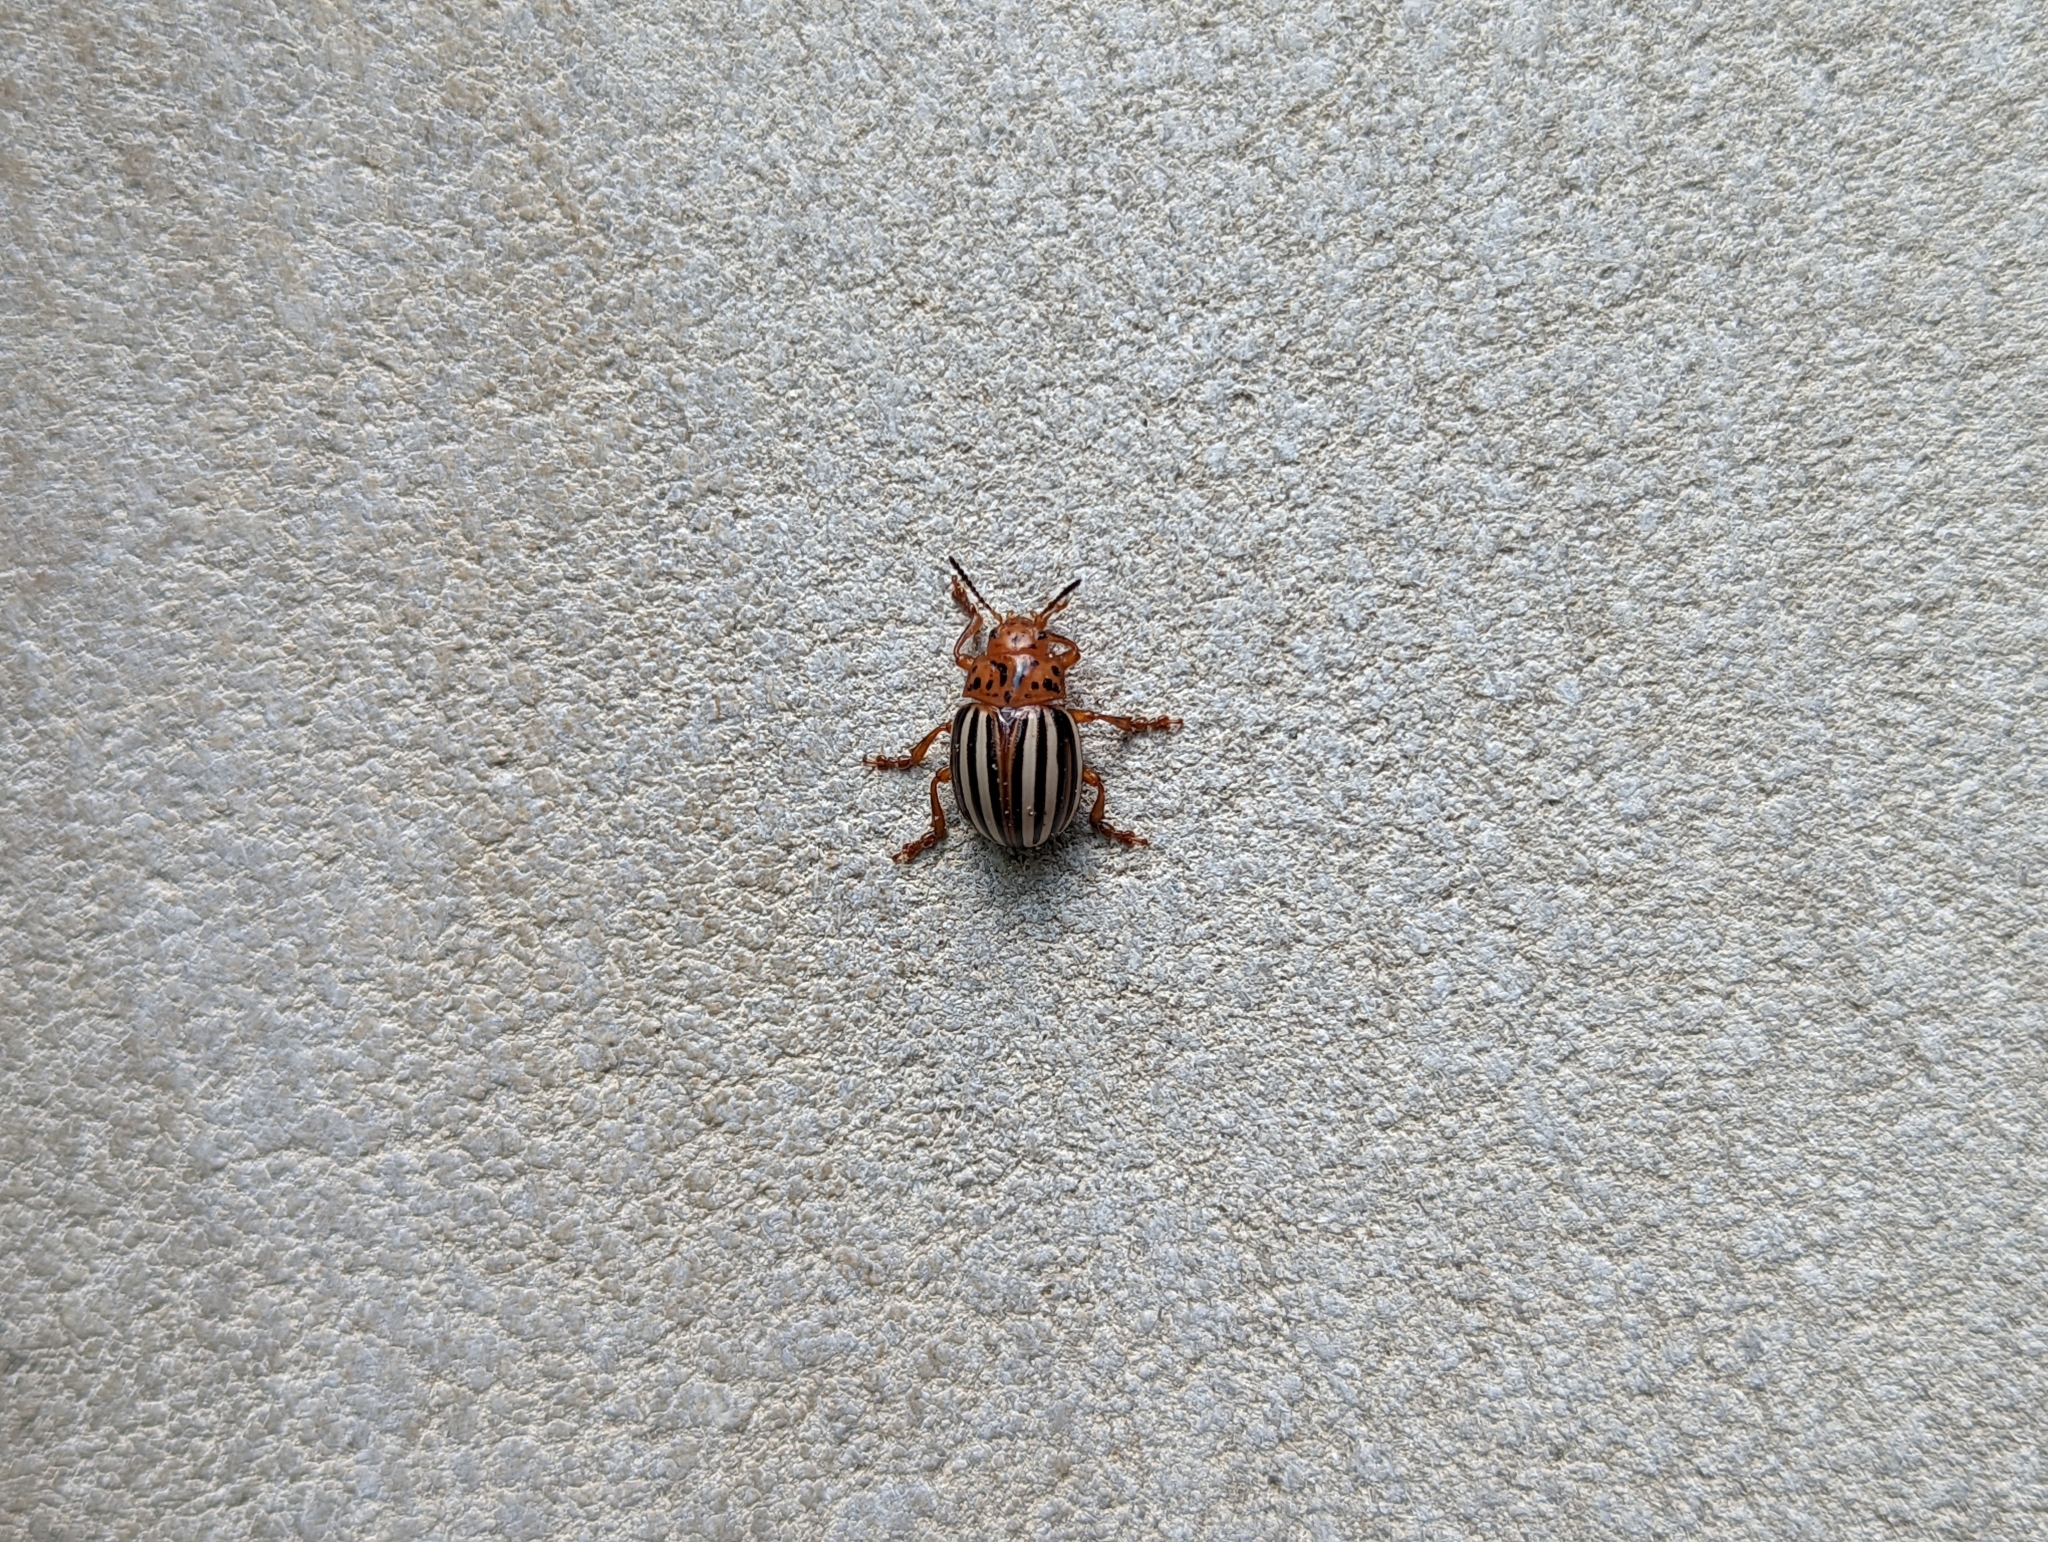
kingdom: Animalia
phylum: Arthropoda
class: Insecta
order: Coleoptera
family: Chrysomelidae
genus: Leptinotarsa
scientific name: Leptinotarsa juncta
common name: False potato beetle
